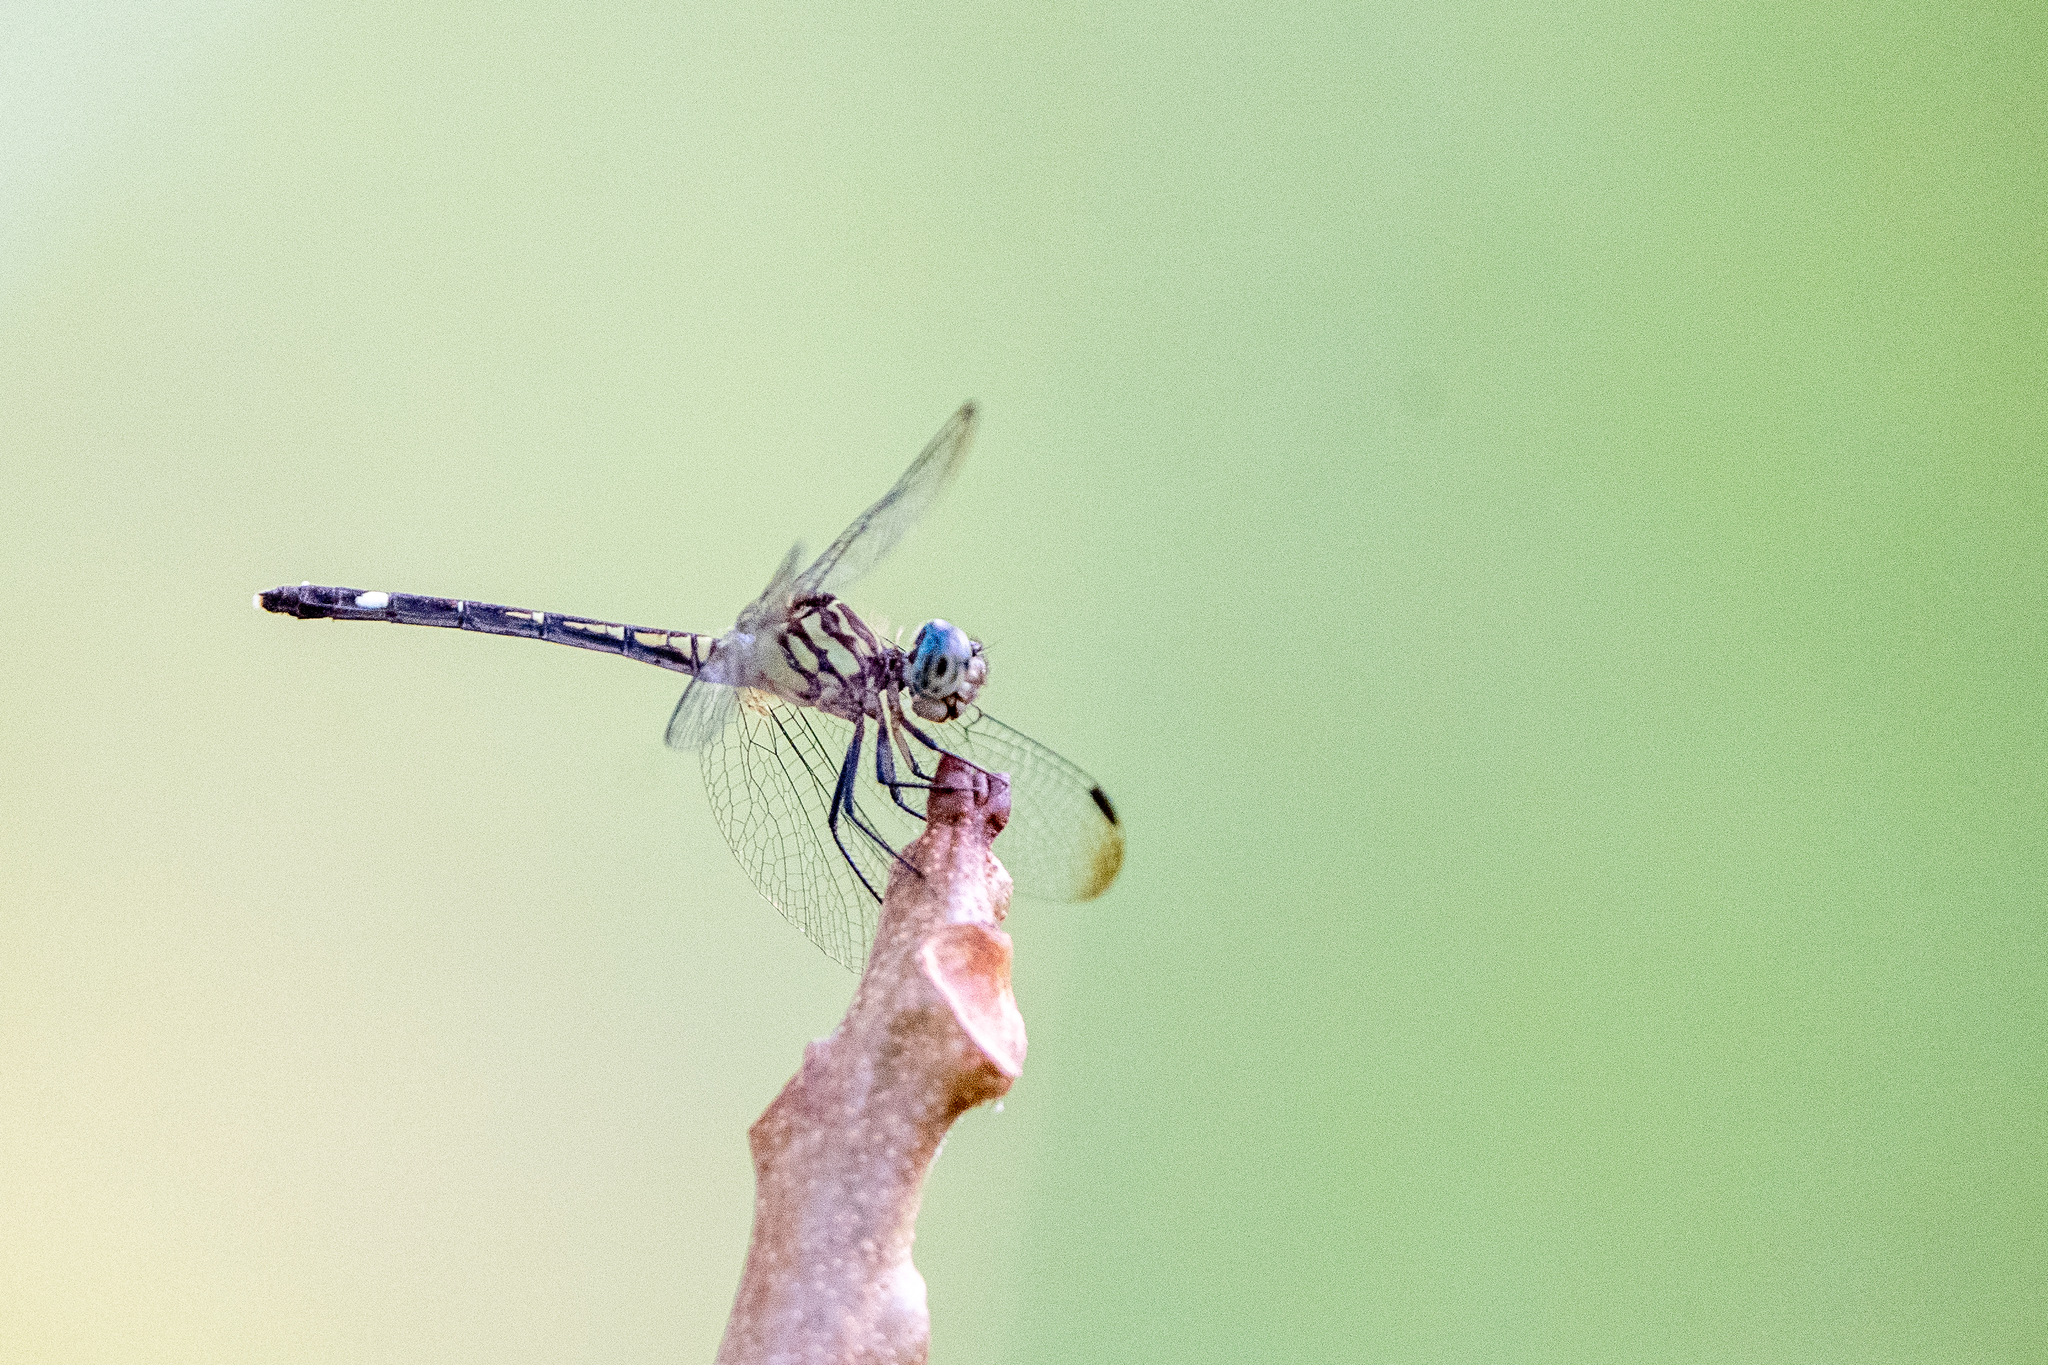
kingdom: Animalia
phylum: Arthropoda
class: Insecta
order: Odonata
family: Libellulidae
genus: Dythemis
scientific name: Dythemis nigra
